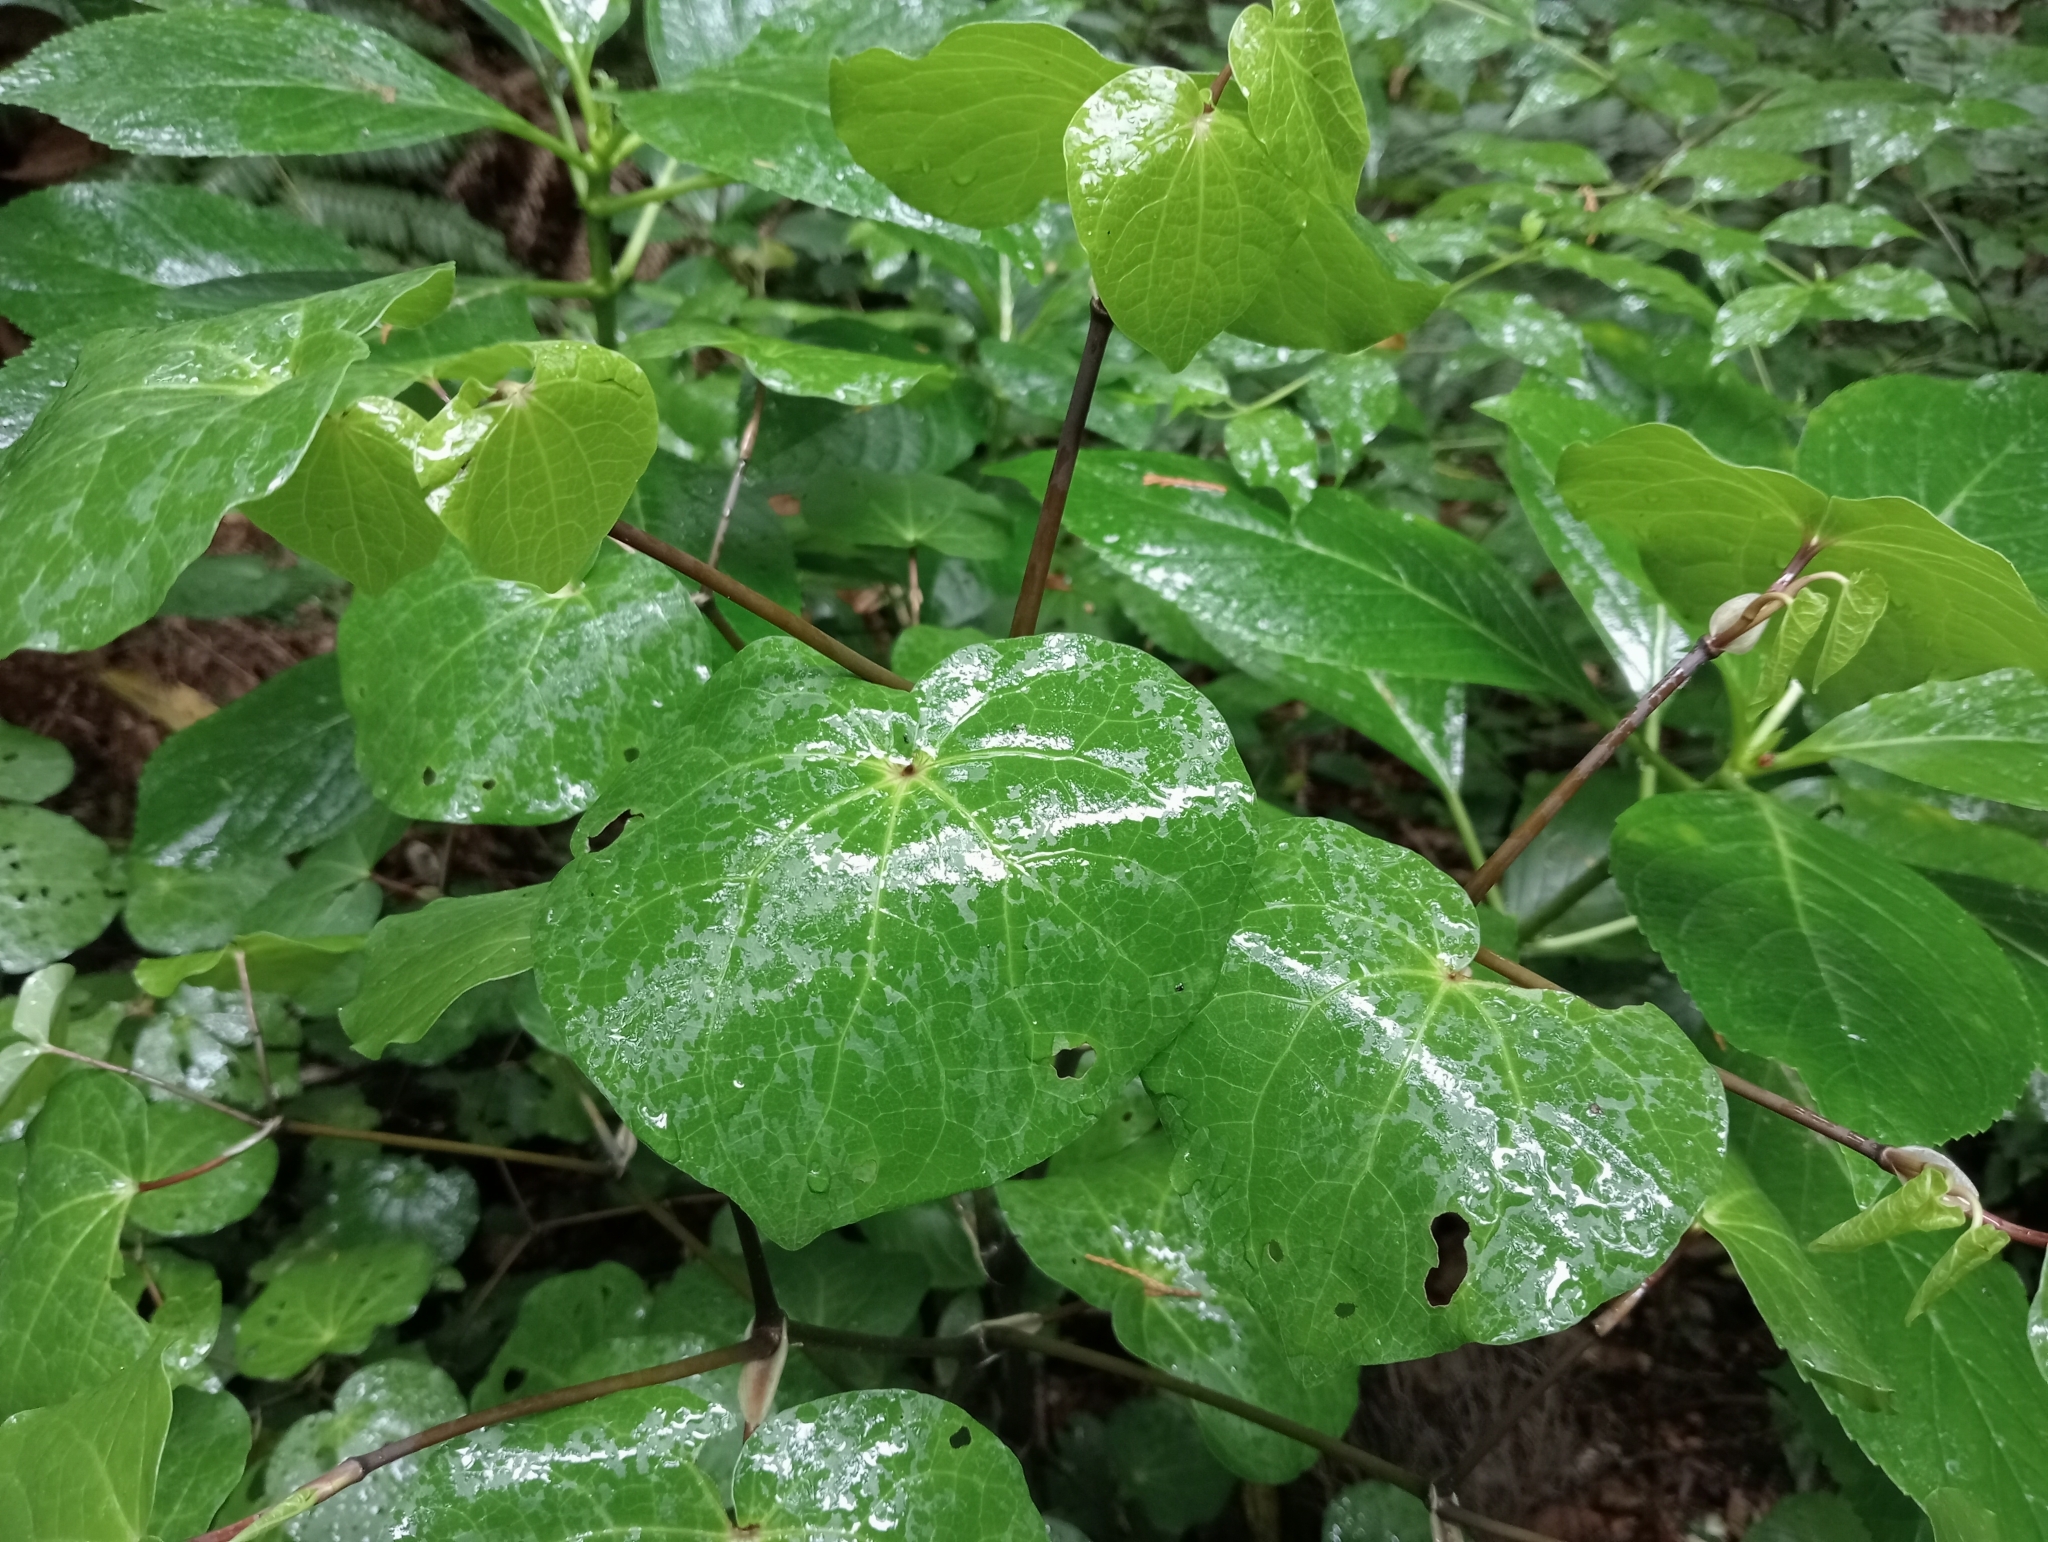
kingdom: Plantae
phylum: Tracheophyta
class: Magnoliopsida
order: Piperales
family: Piperaceae
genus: Macropiper
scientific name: Macropiper excelsum
